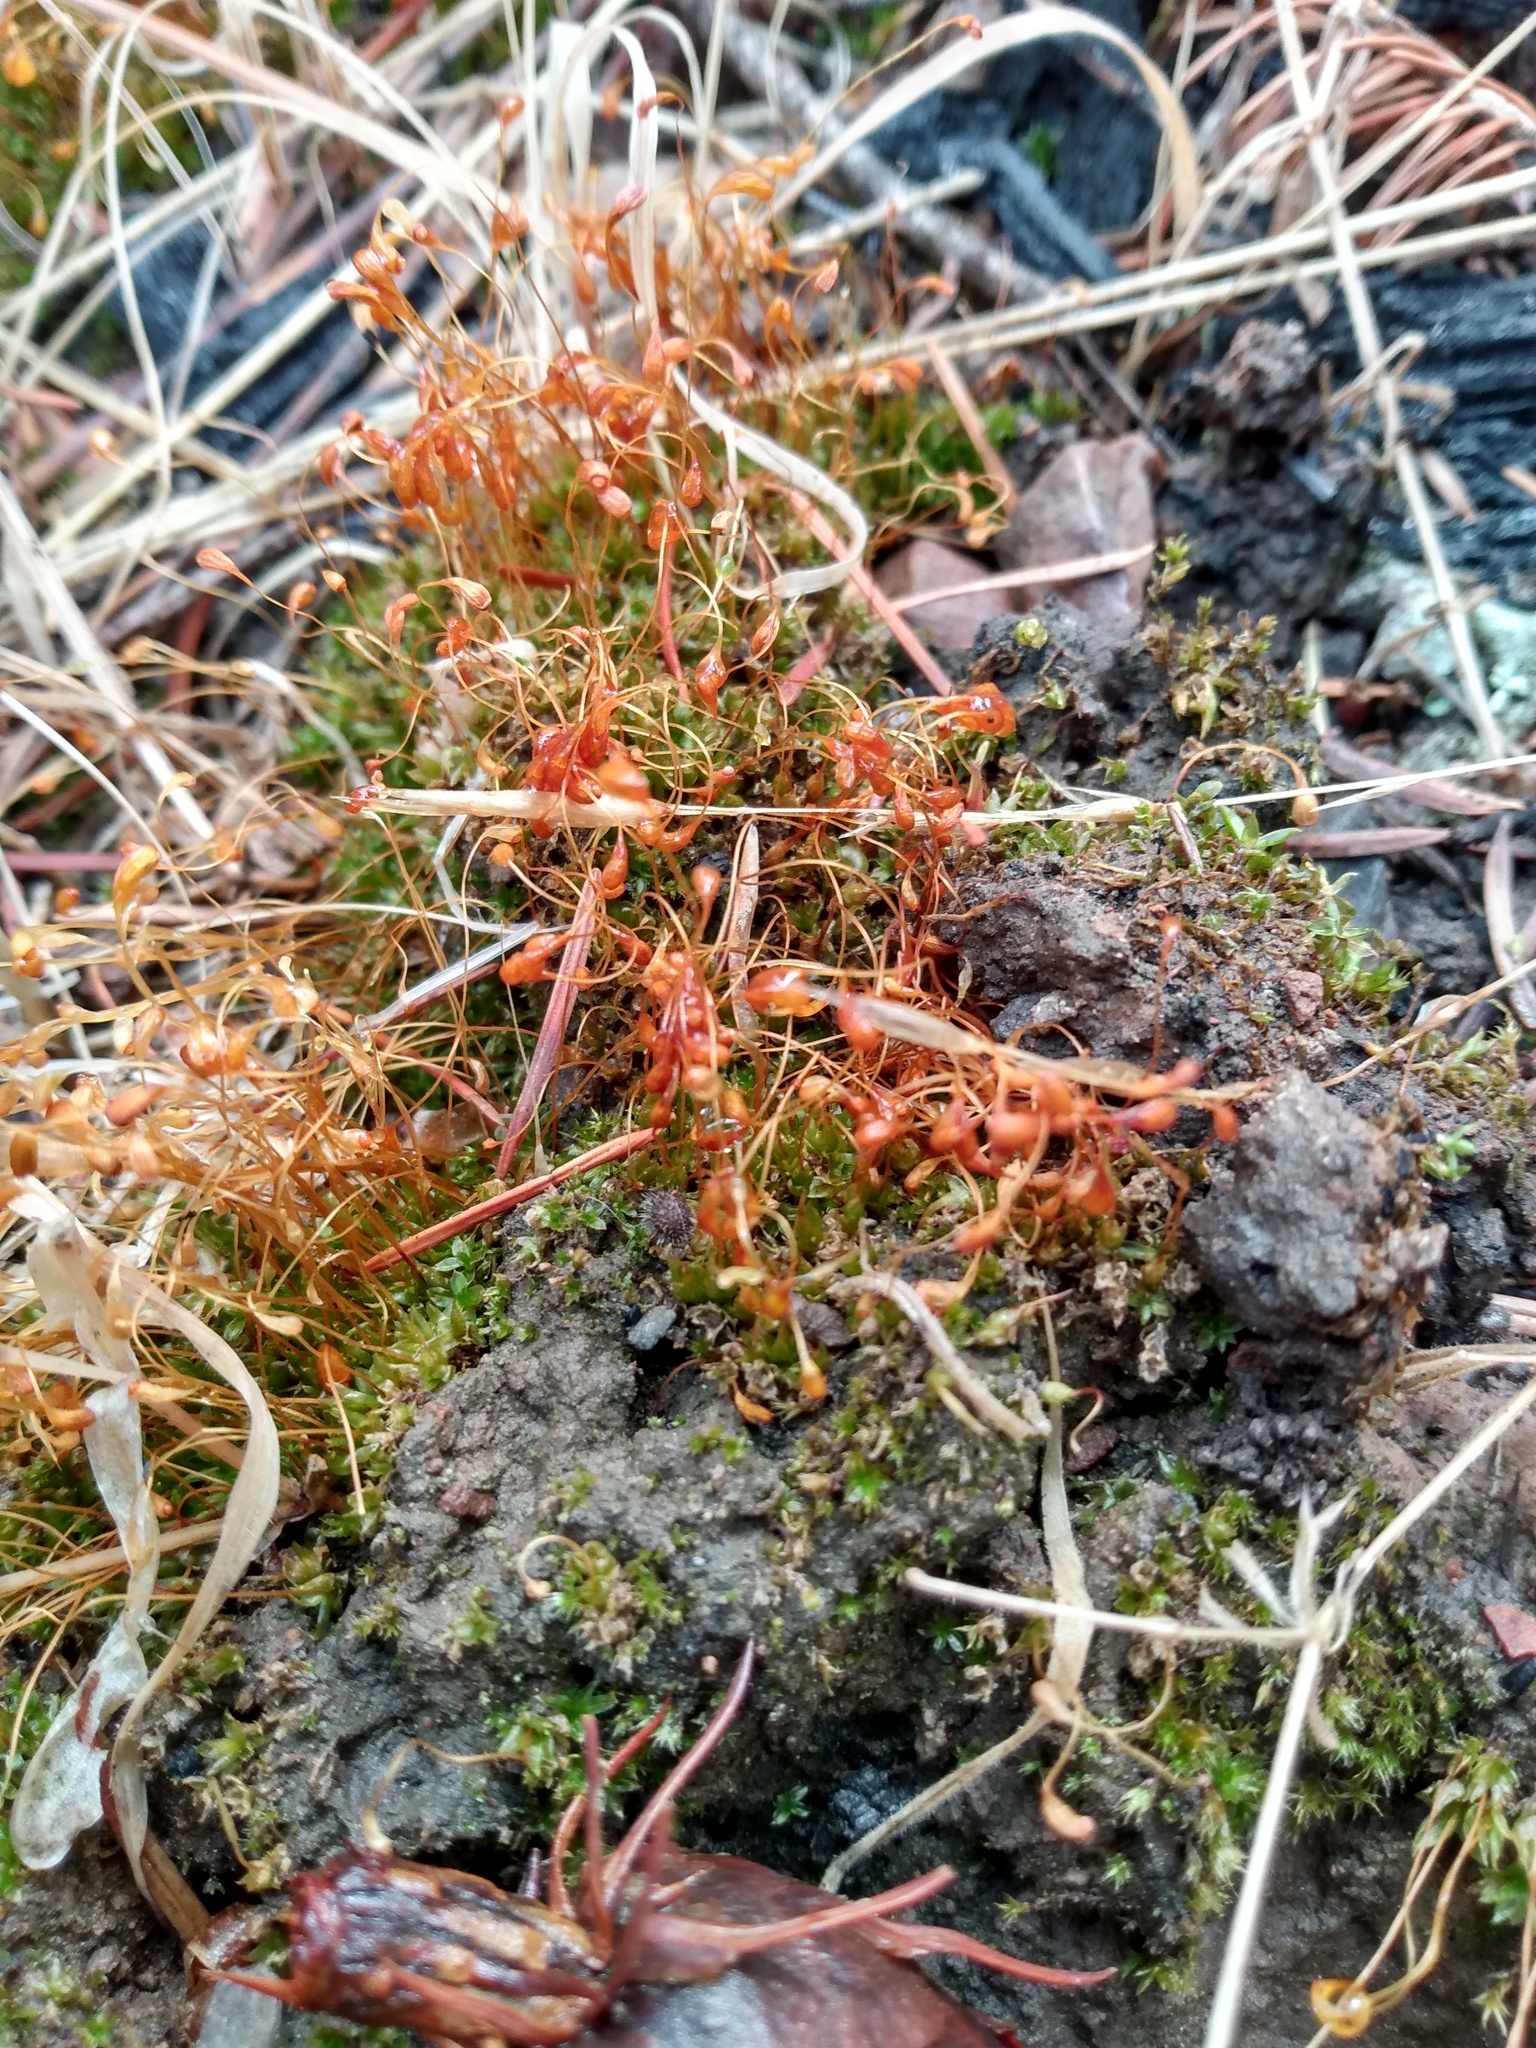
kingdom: Plantae
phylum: Bryophyta
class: Bryopsida
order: Funariales
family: Funariaceae
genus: Funaria
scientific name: Funaria hygrometrica
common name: Common cord moss
